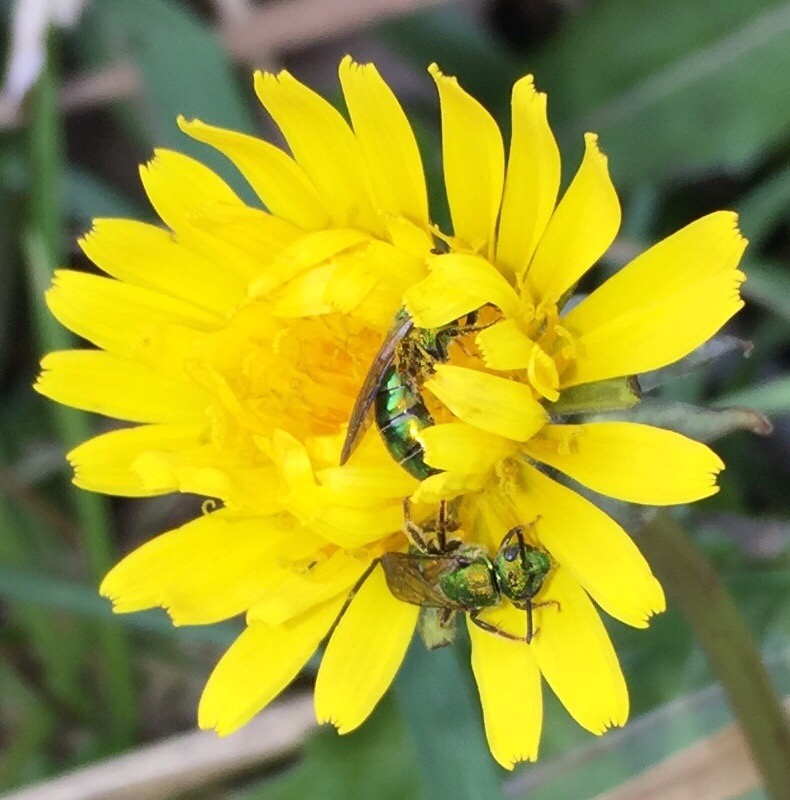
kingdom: Animalia
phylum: Arthropoda
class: Insecta
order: Hymenoptera
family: Halictidae
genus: Augochlora
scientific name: Augochlora pura
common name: Pure green sweat bee
